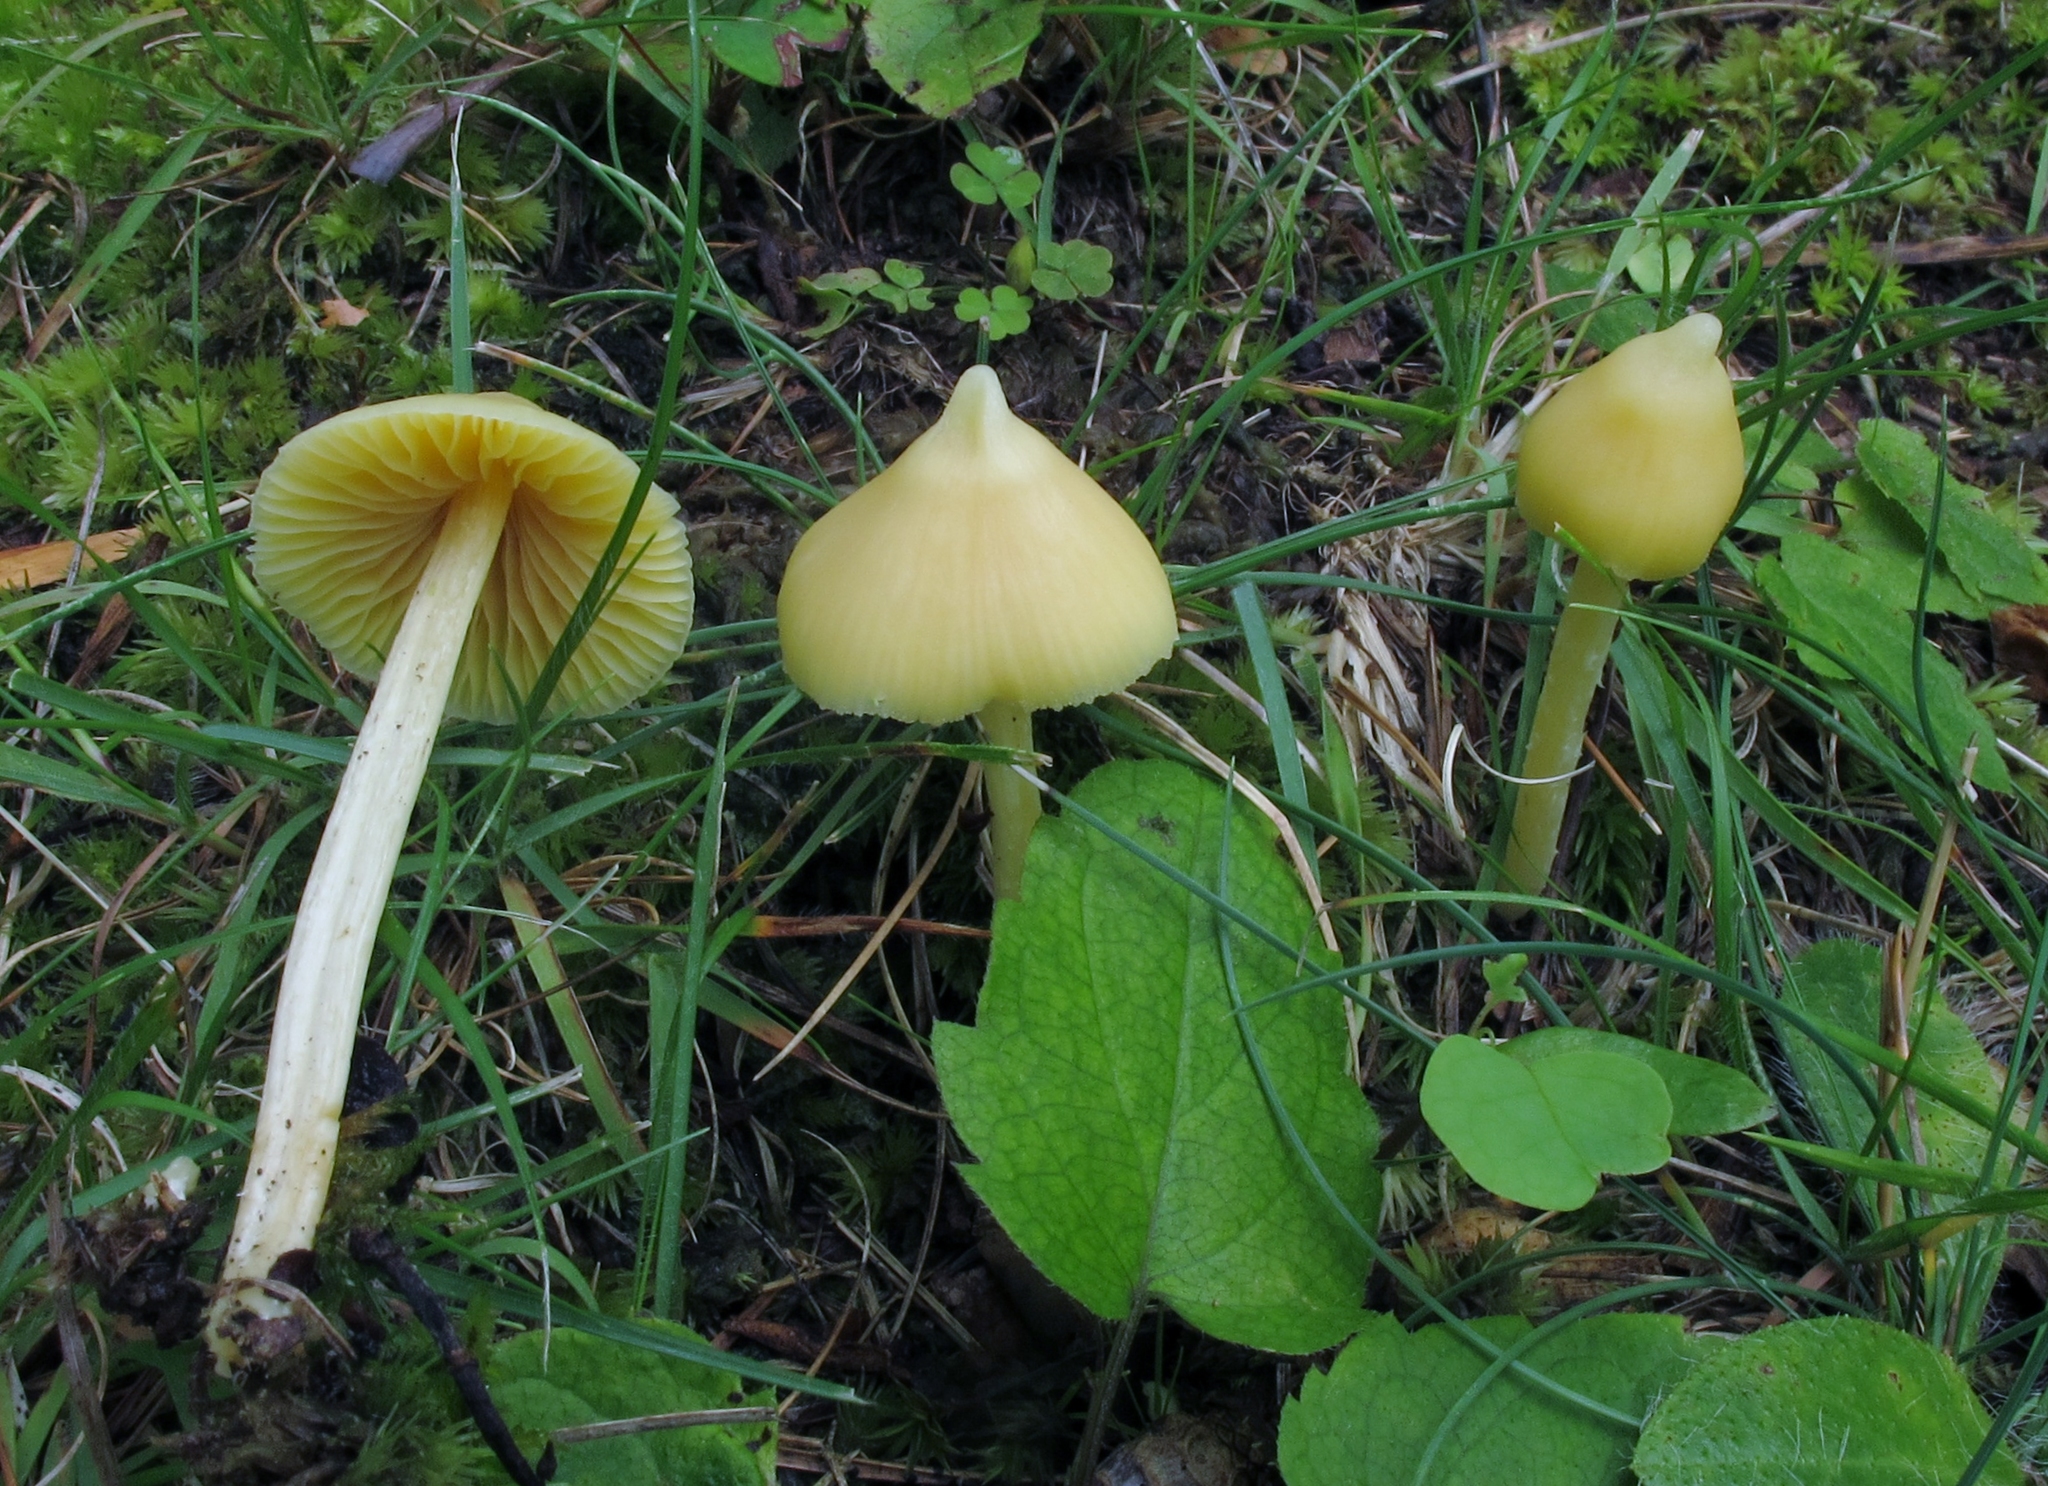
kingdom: Fungi
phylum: Basidiomycota
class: Agaricomycetes
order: Agaricales
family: Entolomataceae
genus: Entoloma
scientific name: Entoloma murrayi
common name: Yellow unicorn entoloma
